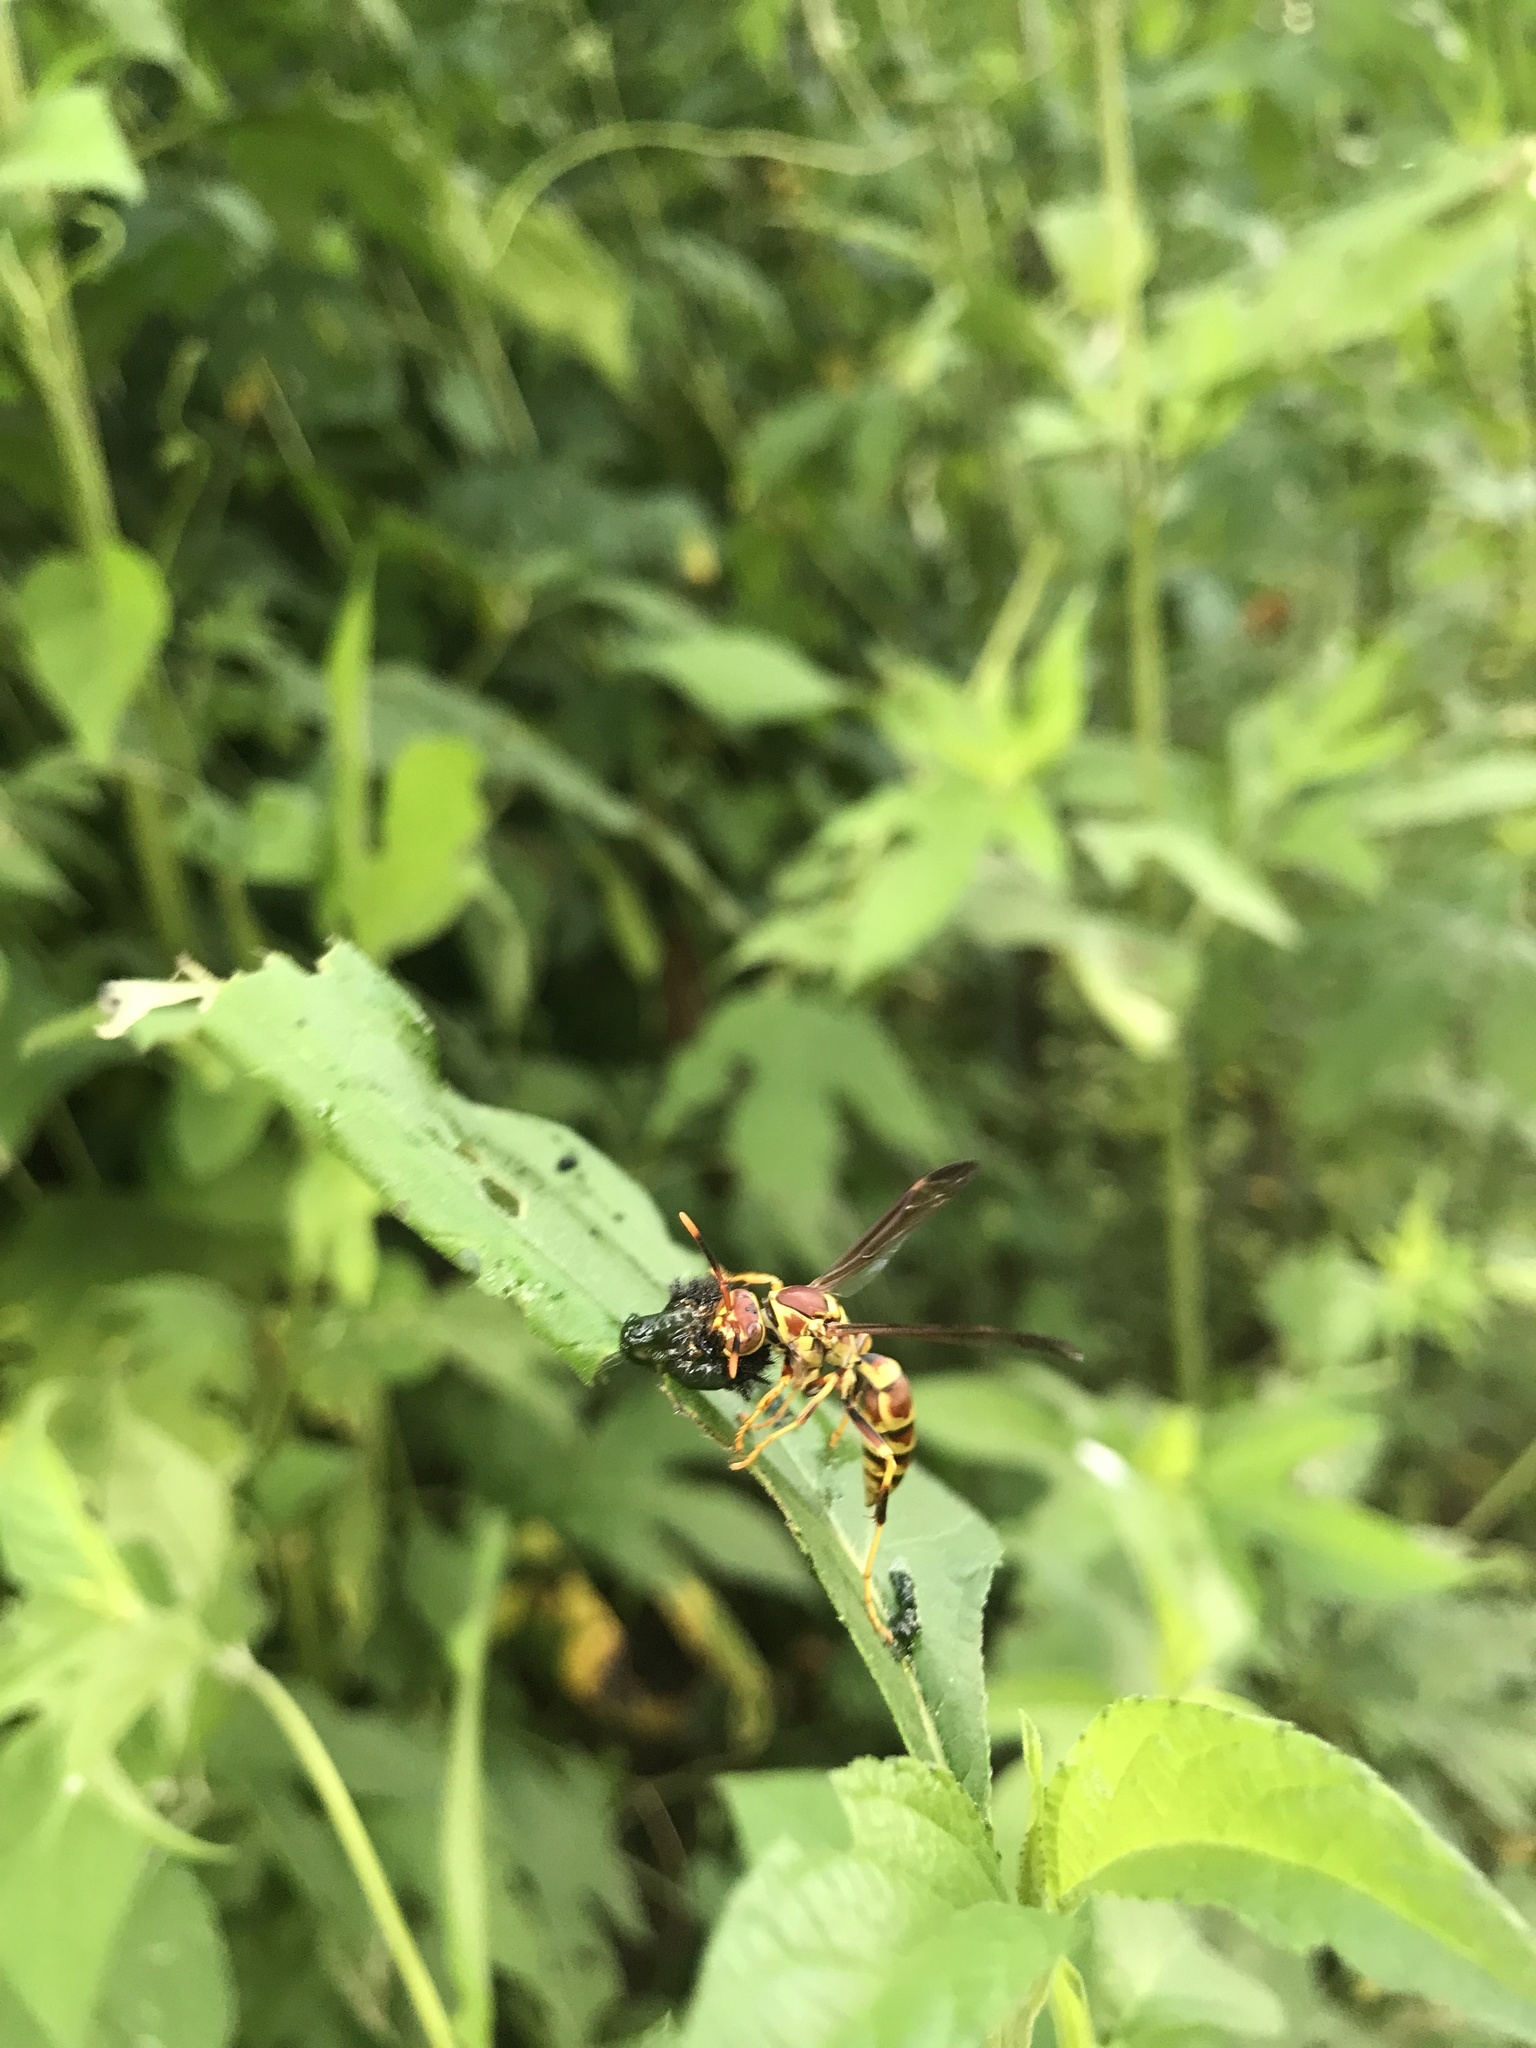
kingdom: Animalia
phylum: Arthropoda
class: Insecta
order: Hymenoptera
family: Eumenidae
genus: Polistes
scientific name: Polistes exclamans
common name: Paper wasp
